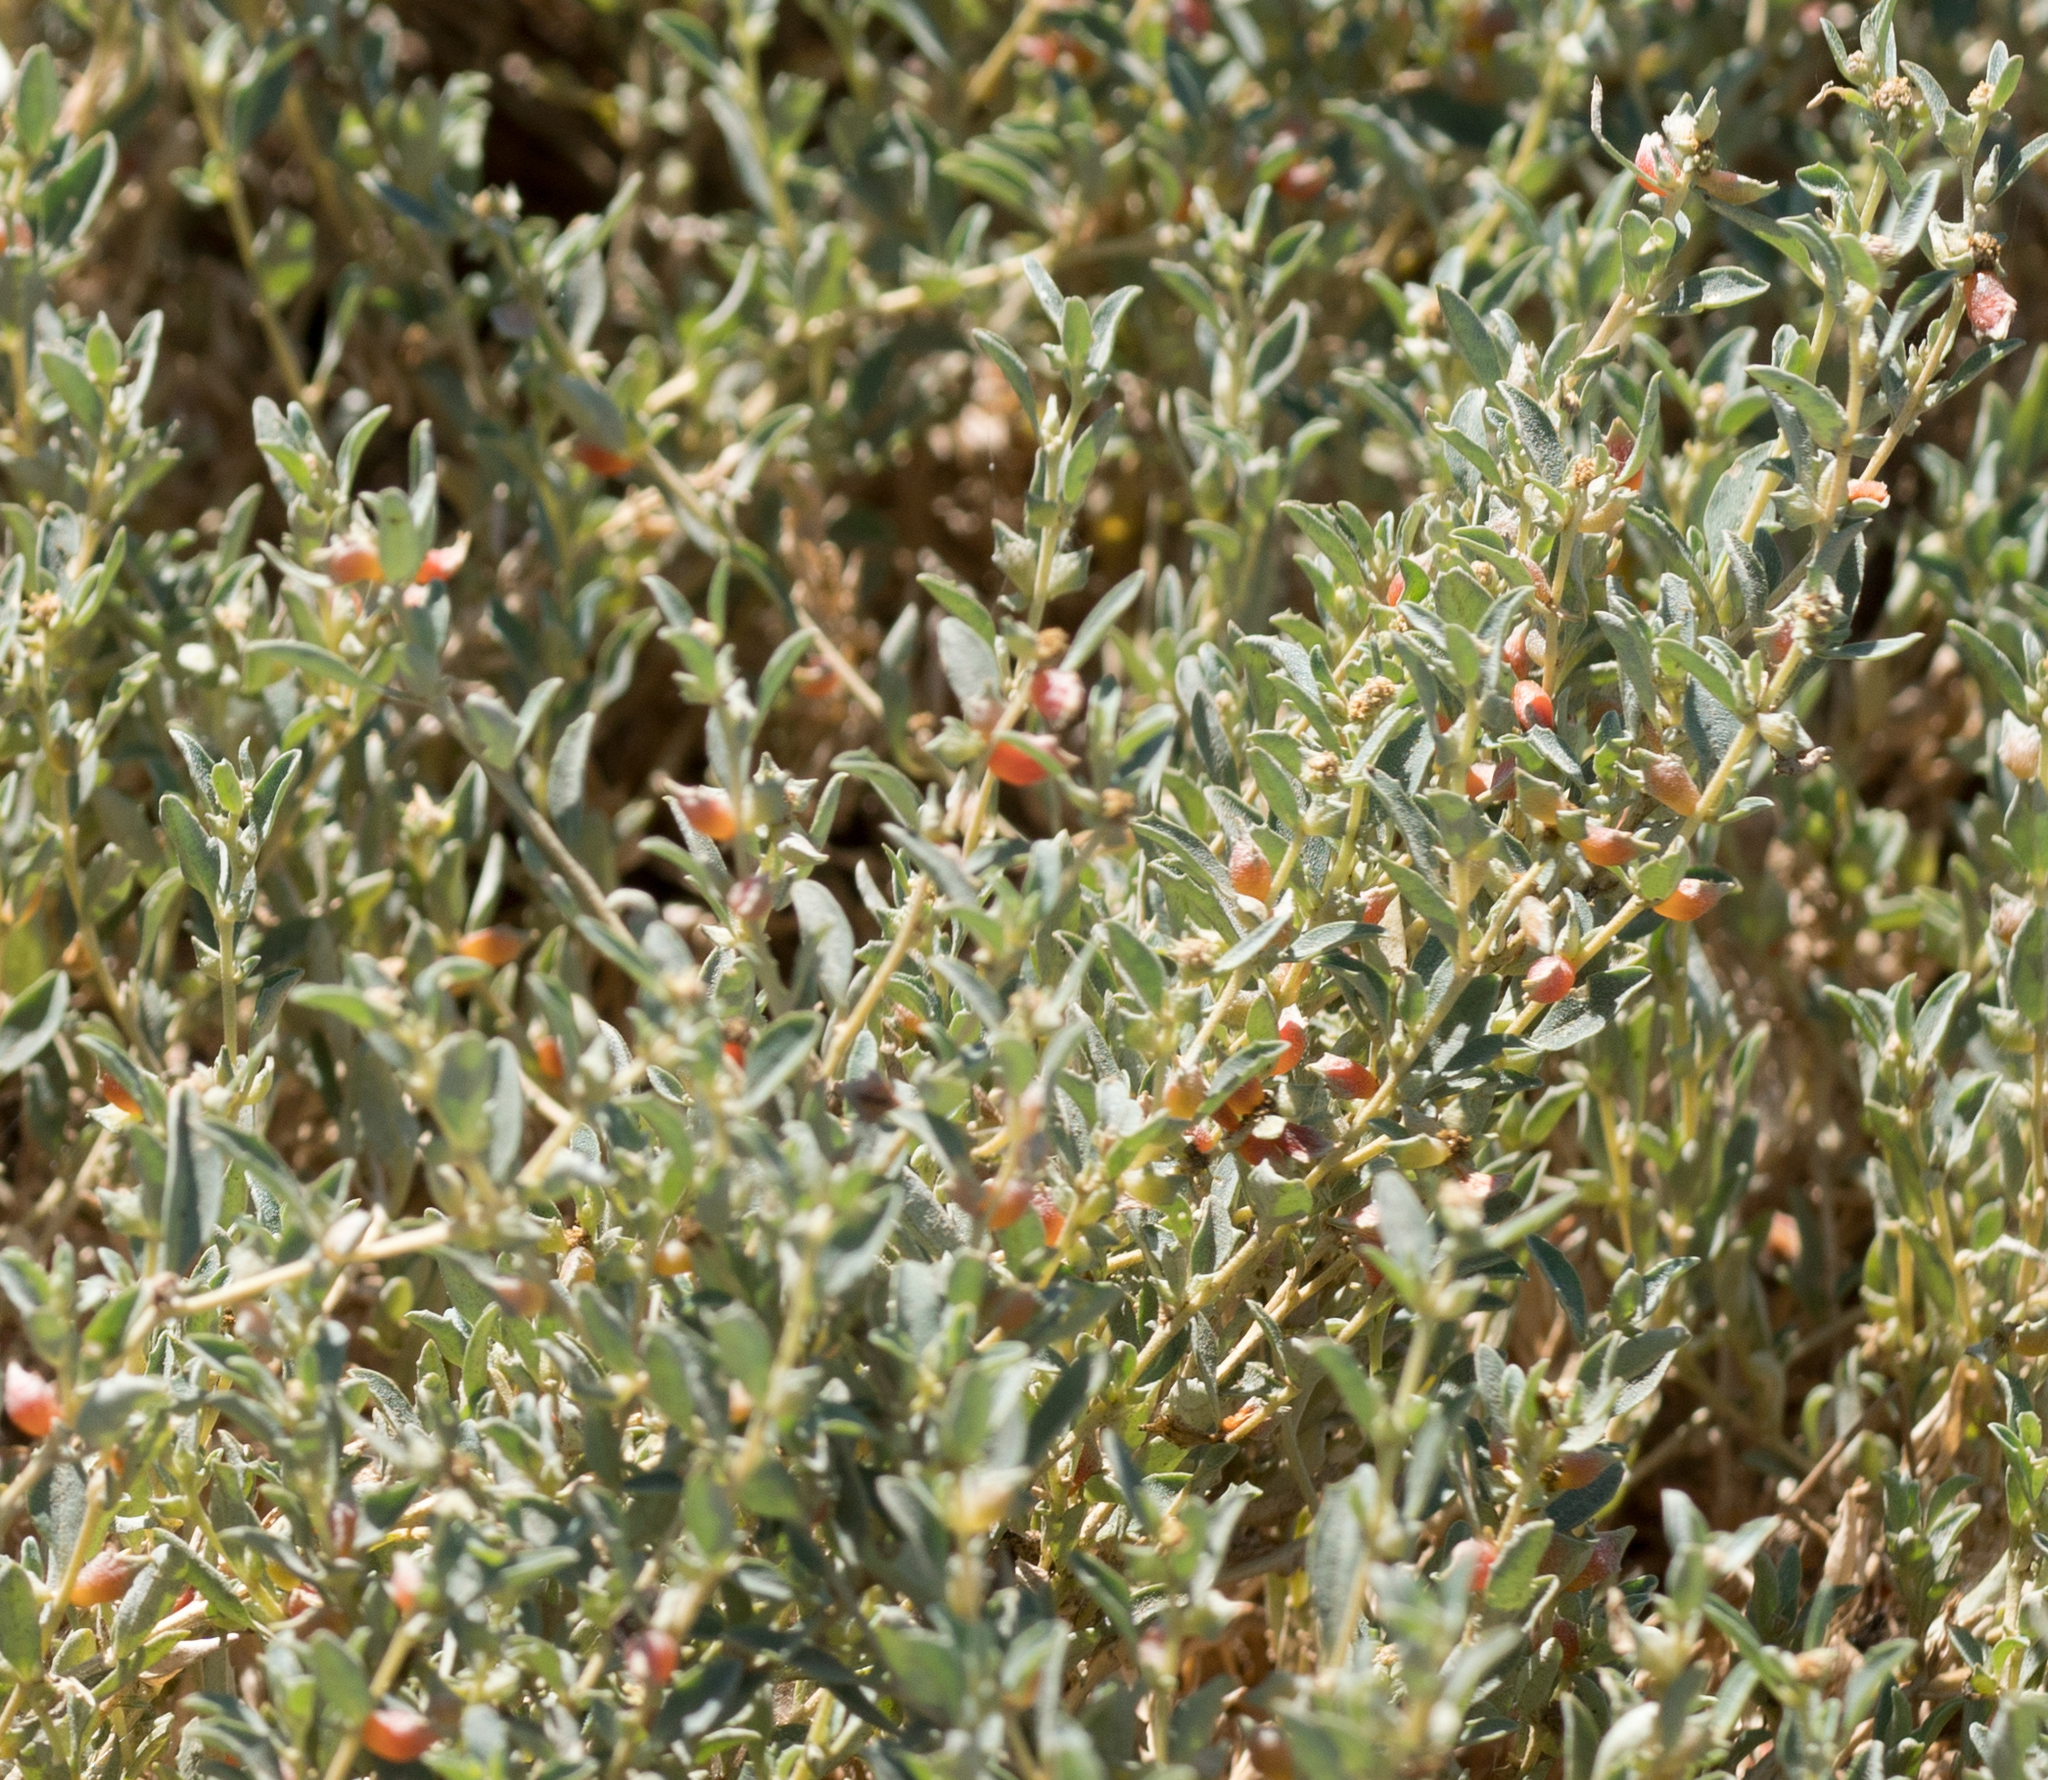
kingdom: Plantae
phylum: Tracheophyta
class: Magnoliopsida
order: Caryophyllales
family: Amaranthaceae
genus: Atriplex
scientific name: Atriplex semibaccata
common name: Australian saltbush
